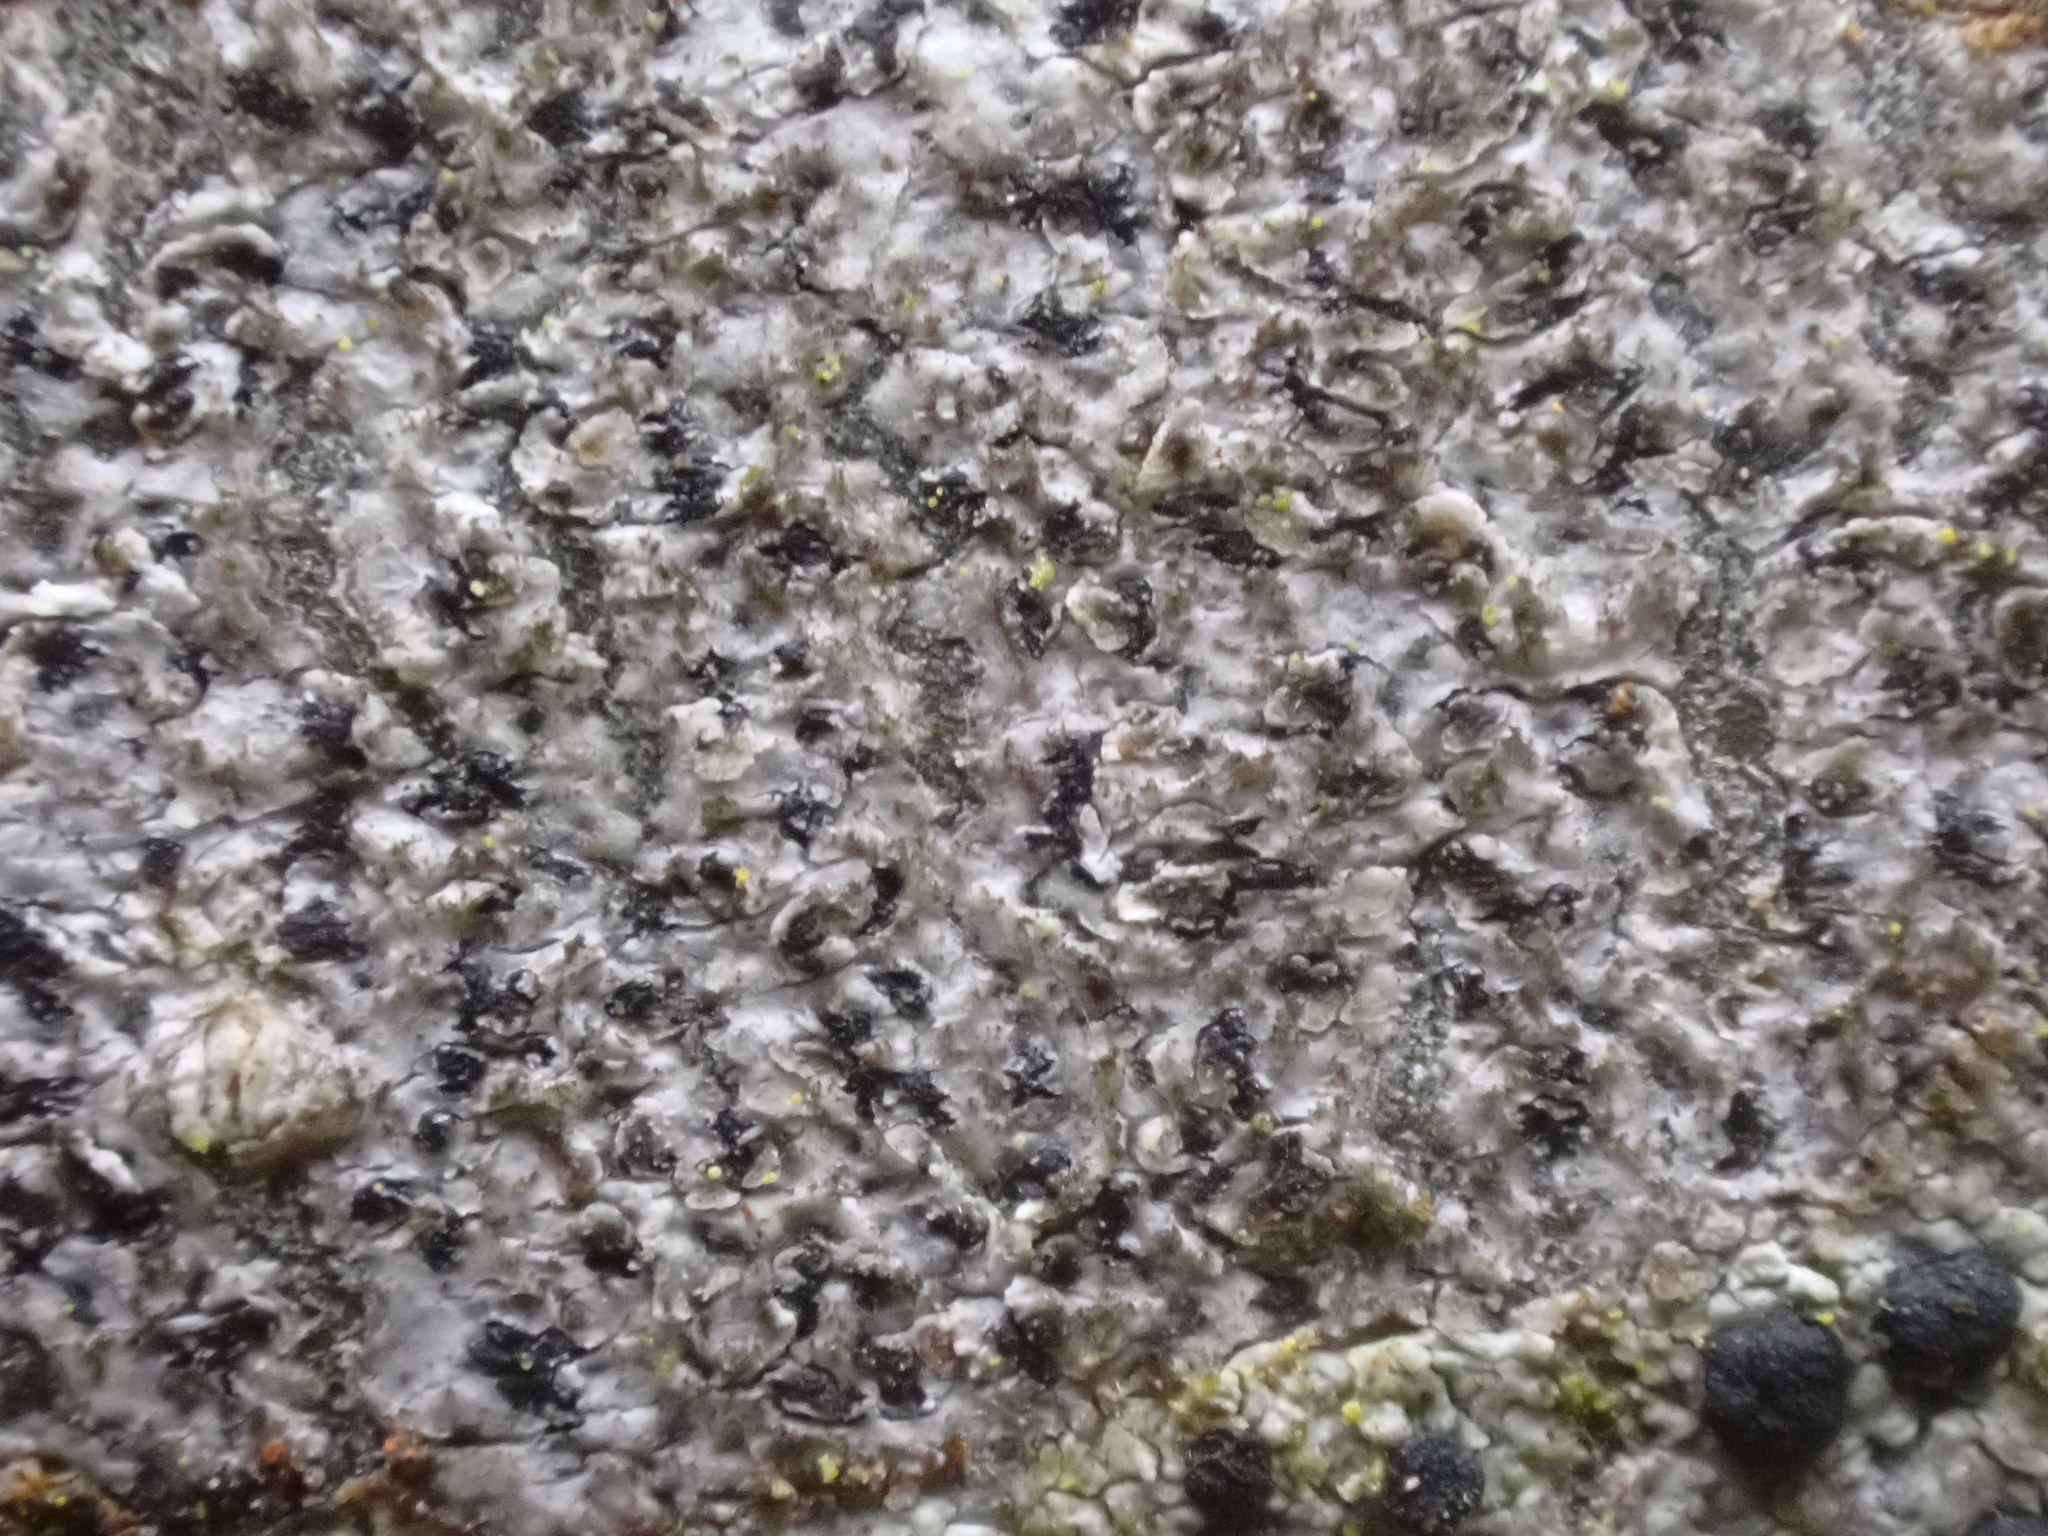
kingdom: Fungi
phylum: Ascomycota
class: Arthoniomycetes
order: Arthoniales
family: Arthoniaceae
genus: Arthonia
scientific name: Arthonia radiata
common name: Asterisk lichen
